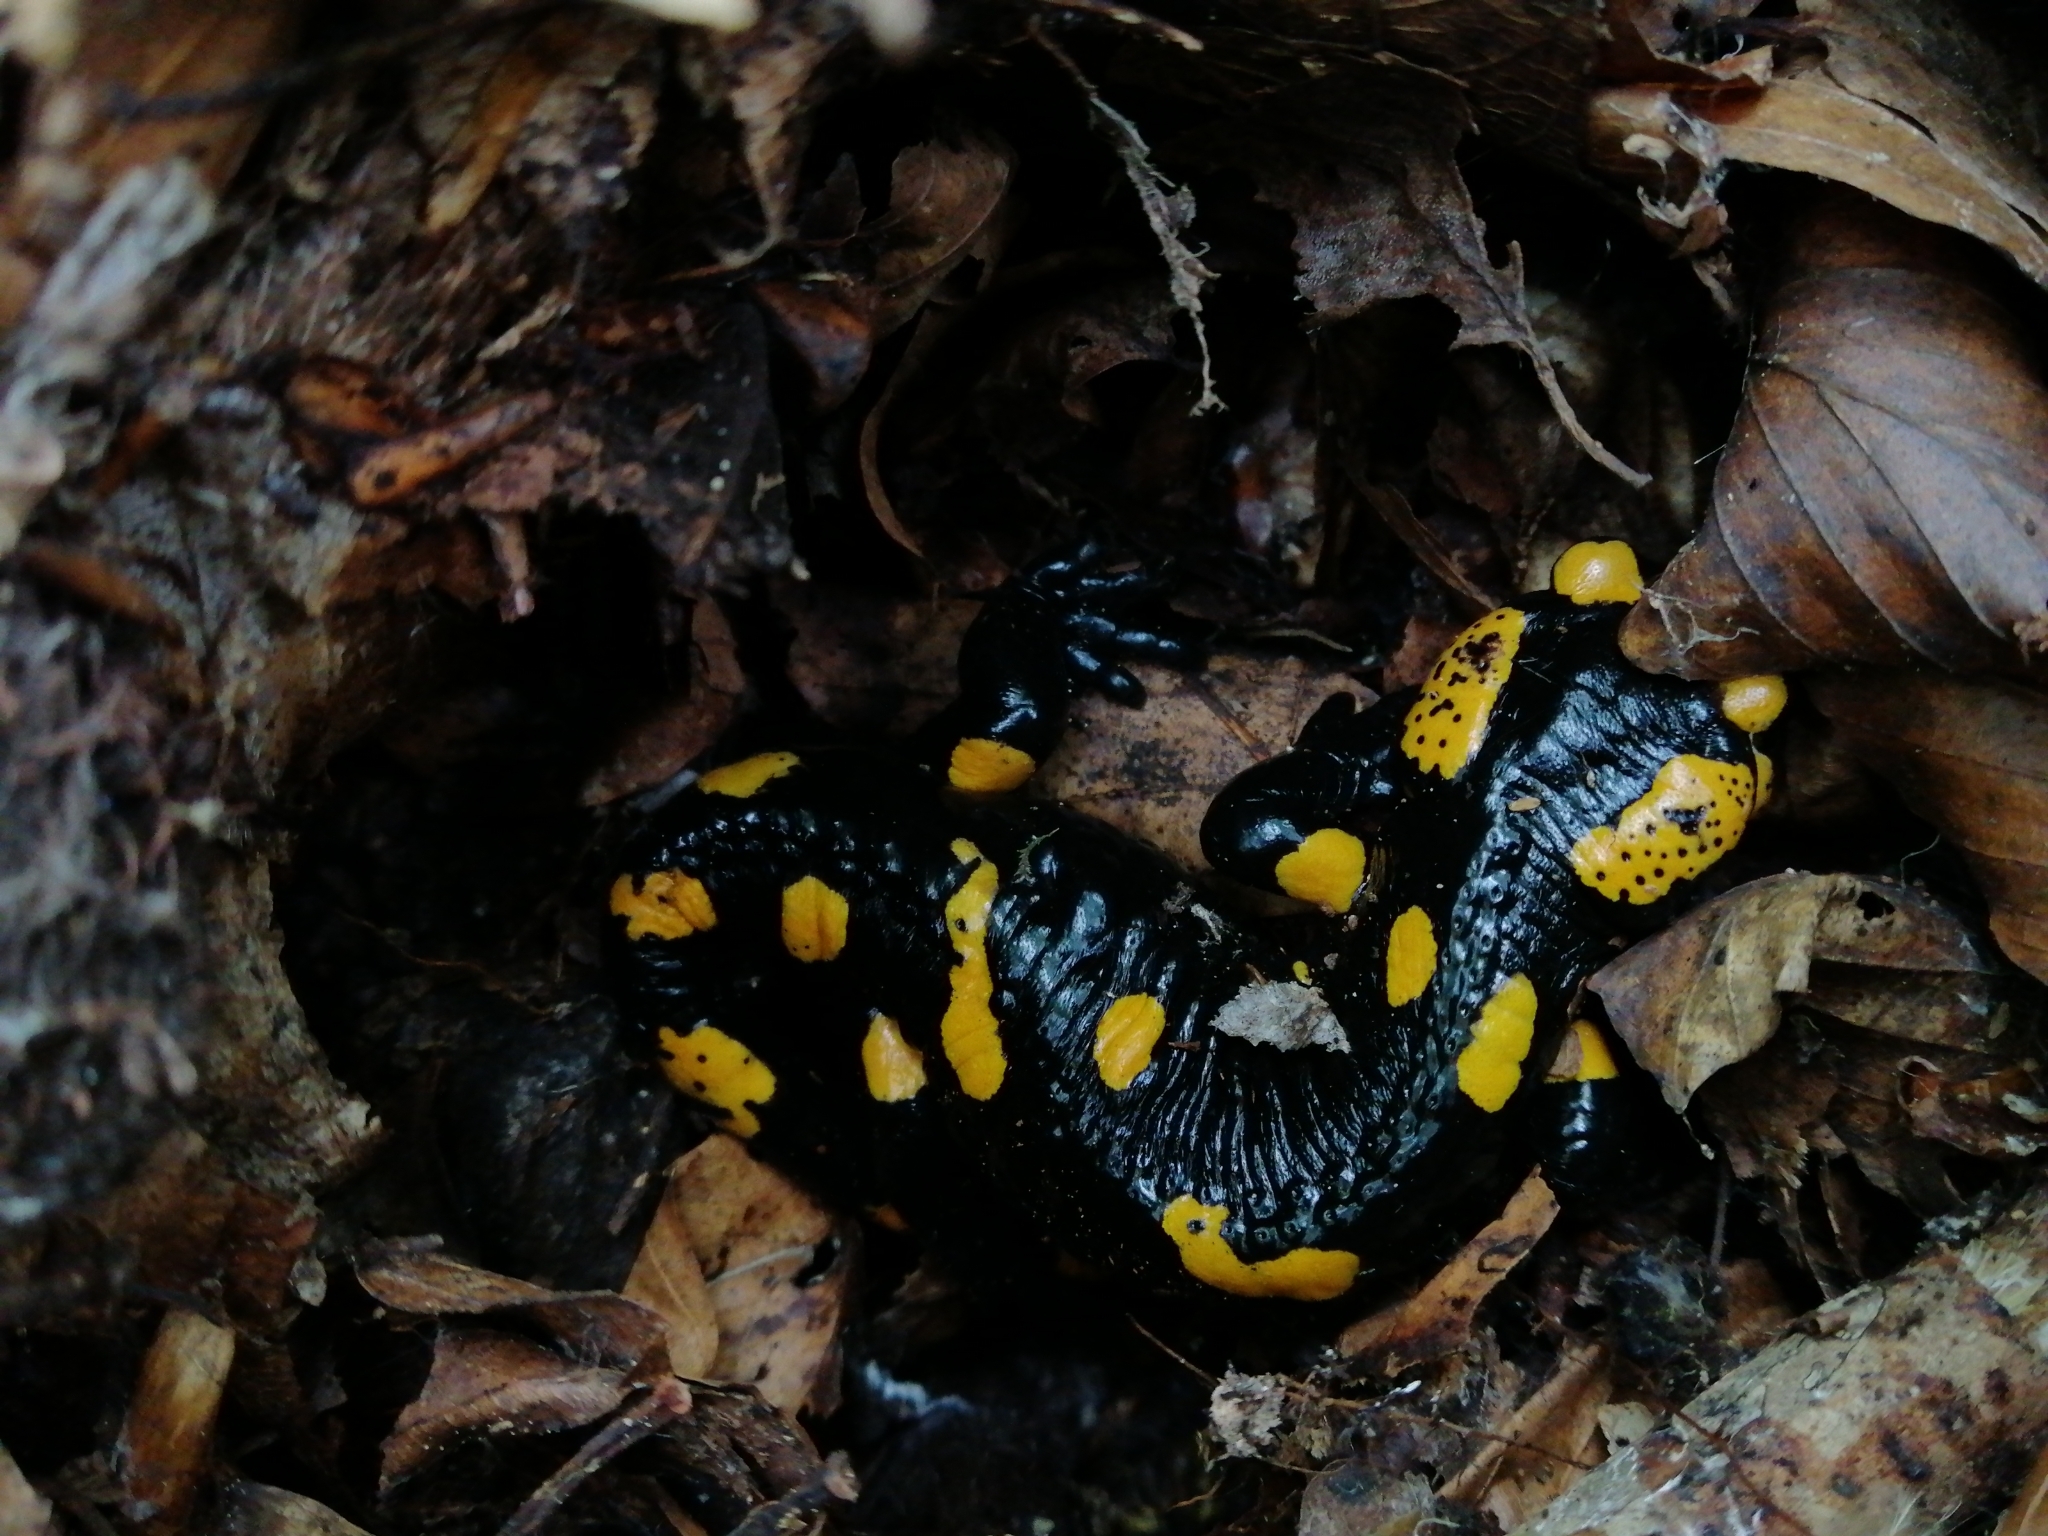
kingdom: Animalia
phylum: Chordata
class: Amphibia
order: Caudata
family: Salamandridae
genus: Salamandra
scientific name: Salamandra salamandra
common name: Fire salamander
